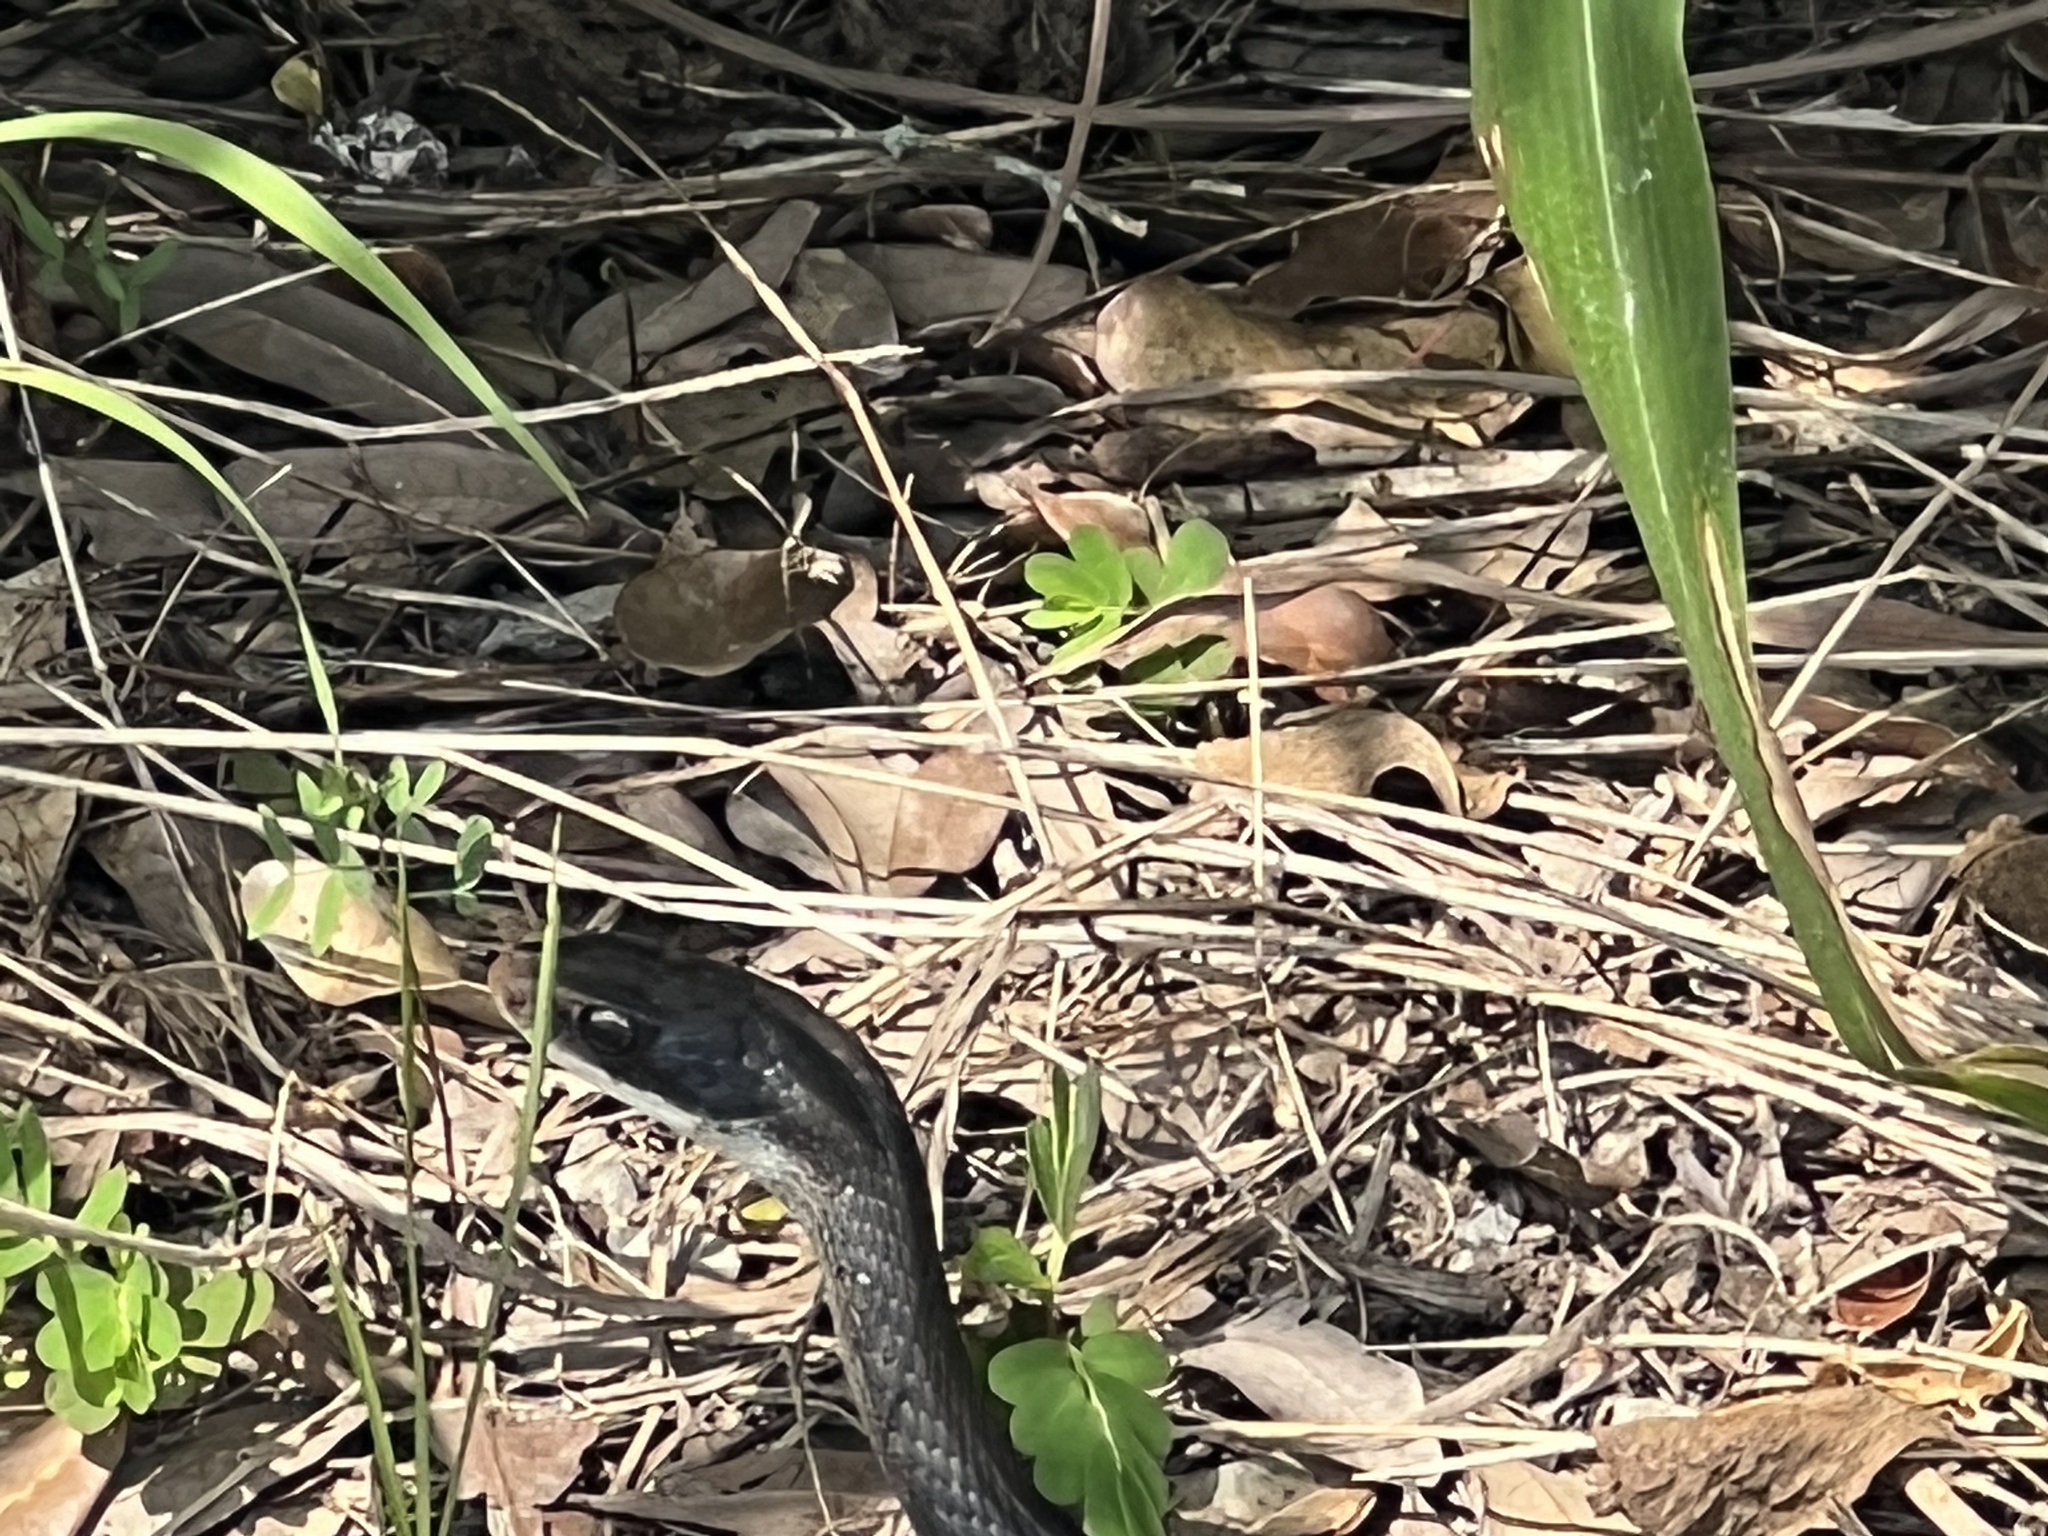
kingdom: Animalia
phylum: Chordata
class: Squamata
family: Colubridae
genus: Coluber
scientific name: Coluber constrictor
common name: Eastern racer
